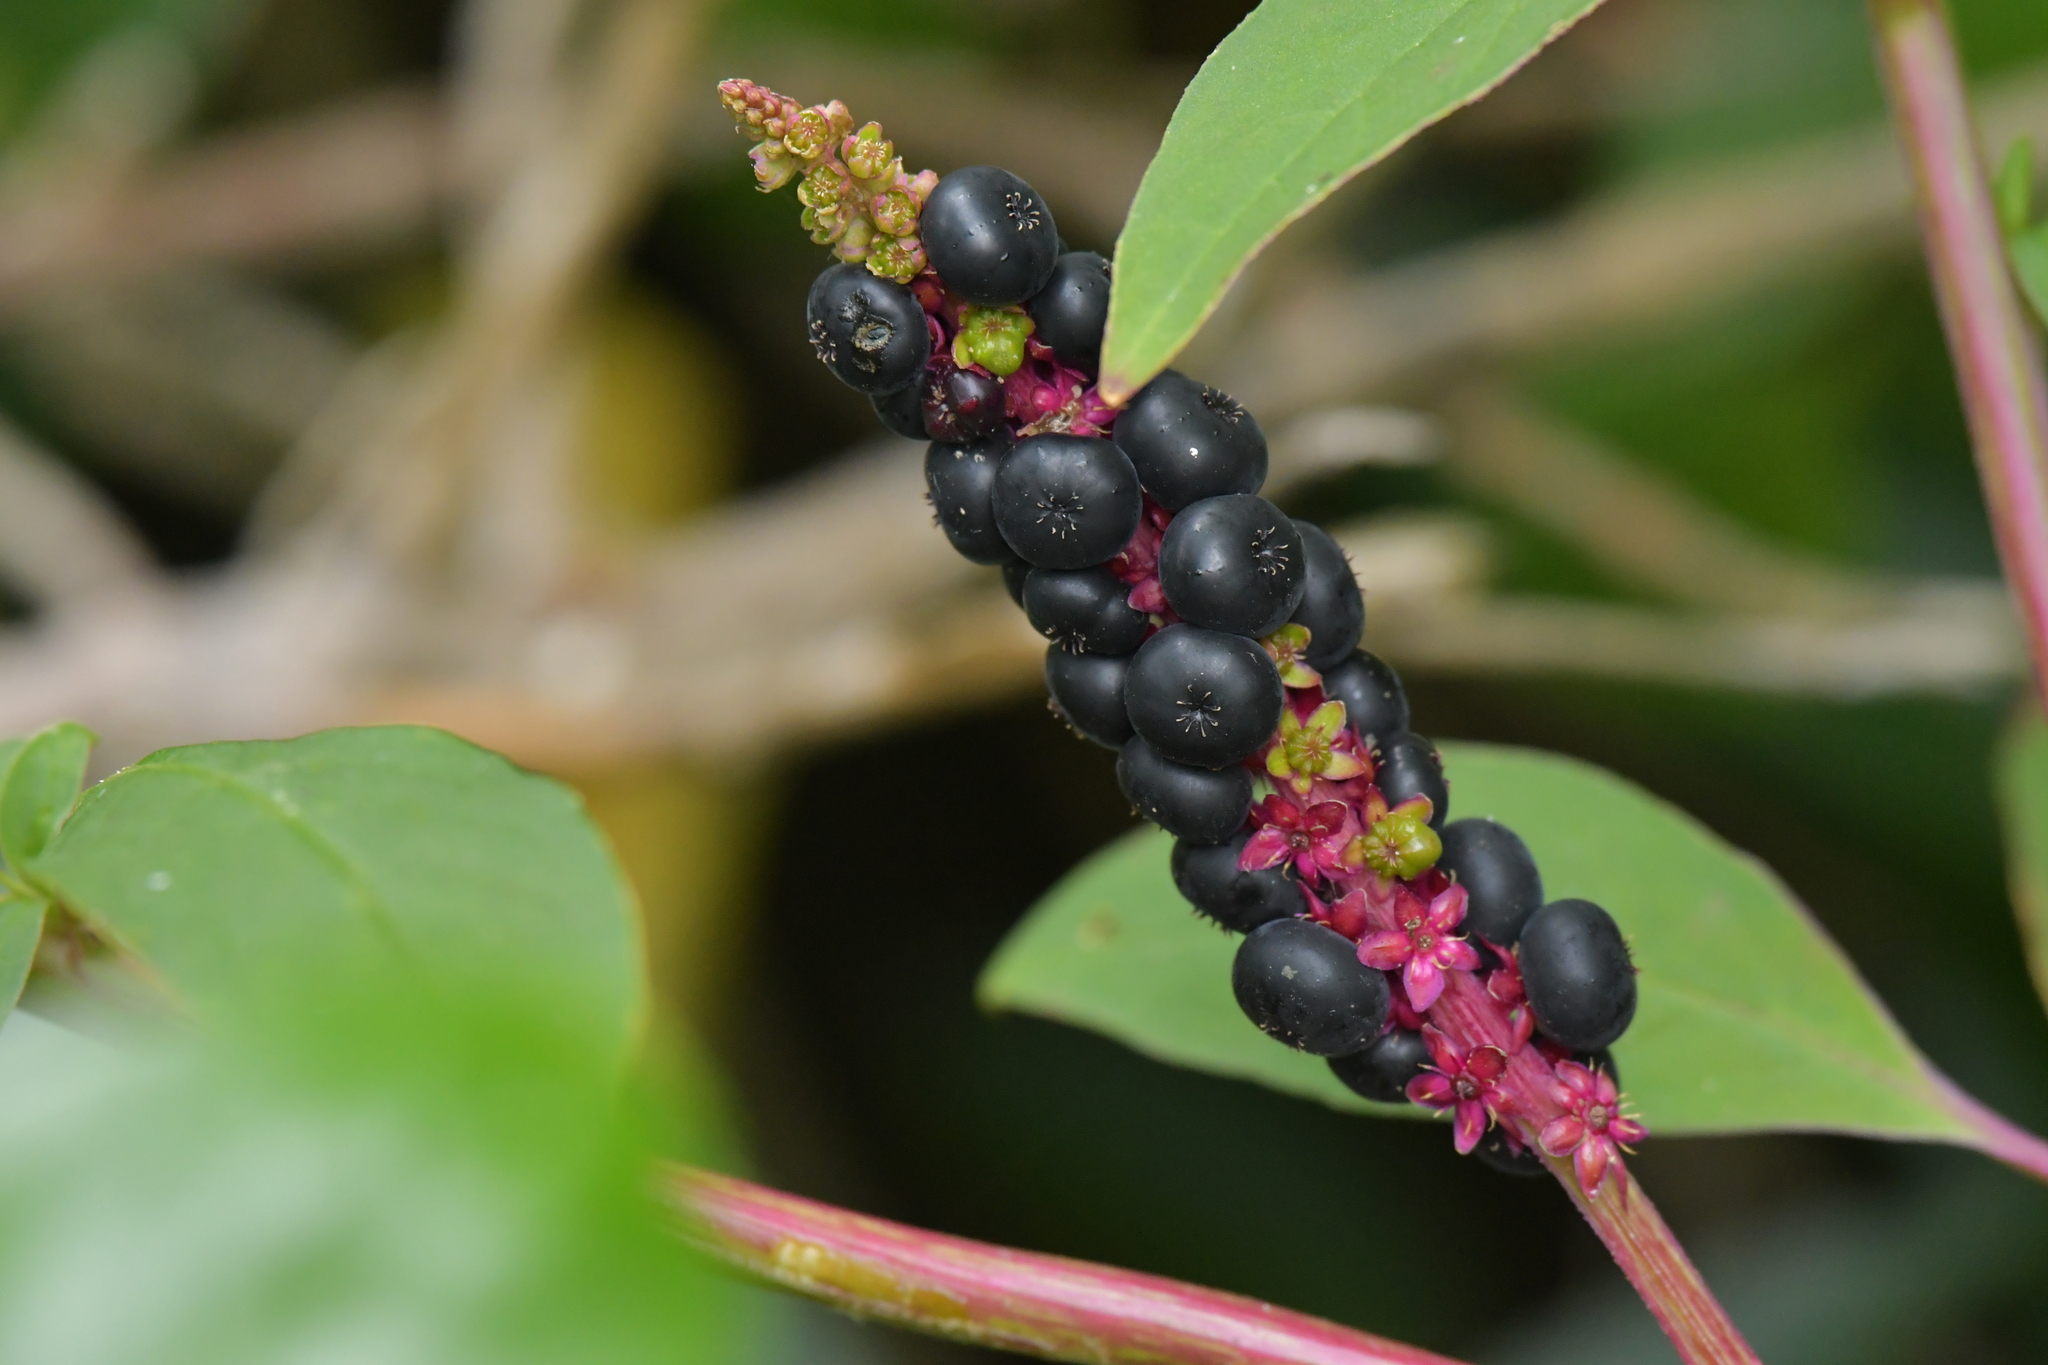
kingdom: Plantae
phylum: Tracheophyta
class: Magnoliopsida
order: Caryophyllales
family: Phytolaccaceae
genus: Phytolacca
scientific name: Phytolacca icosandra
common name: Button pokeweed
